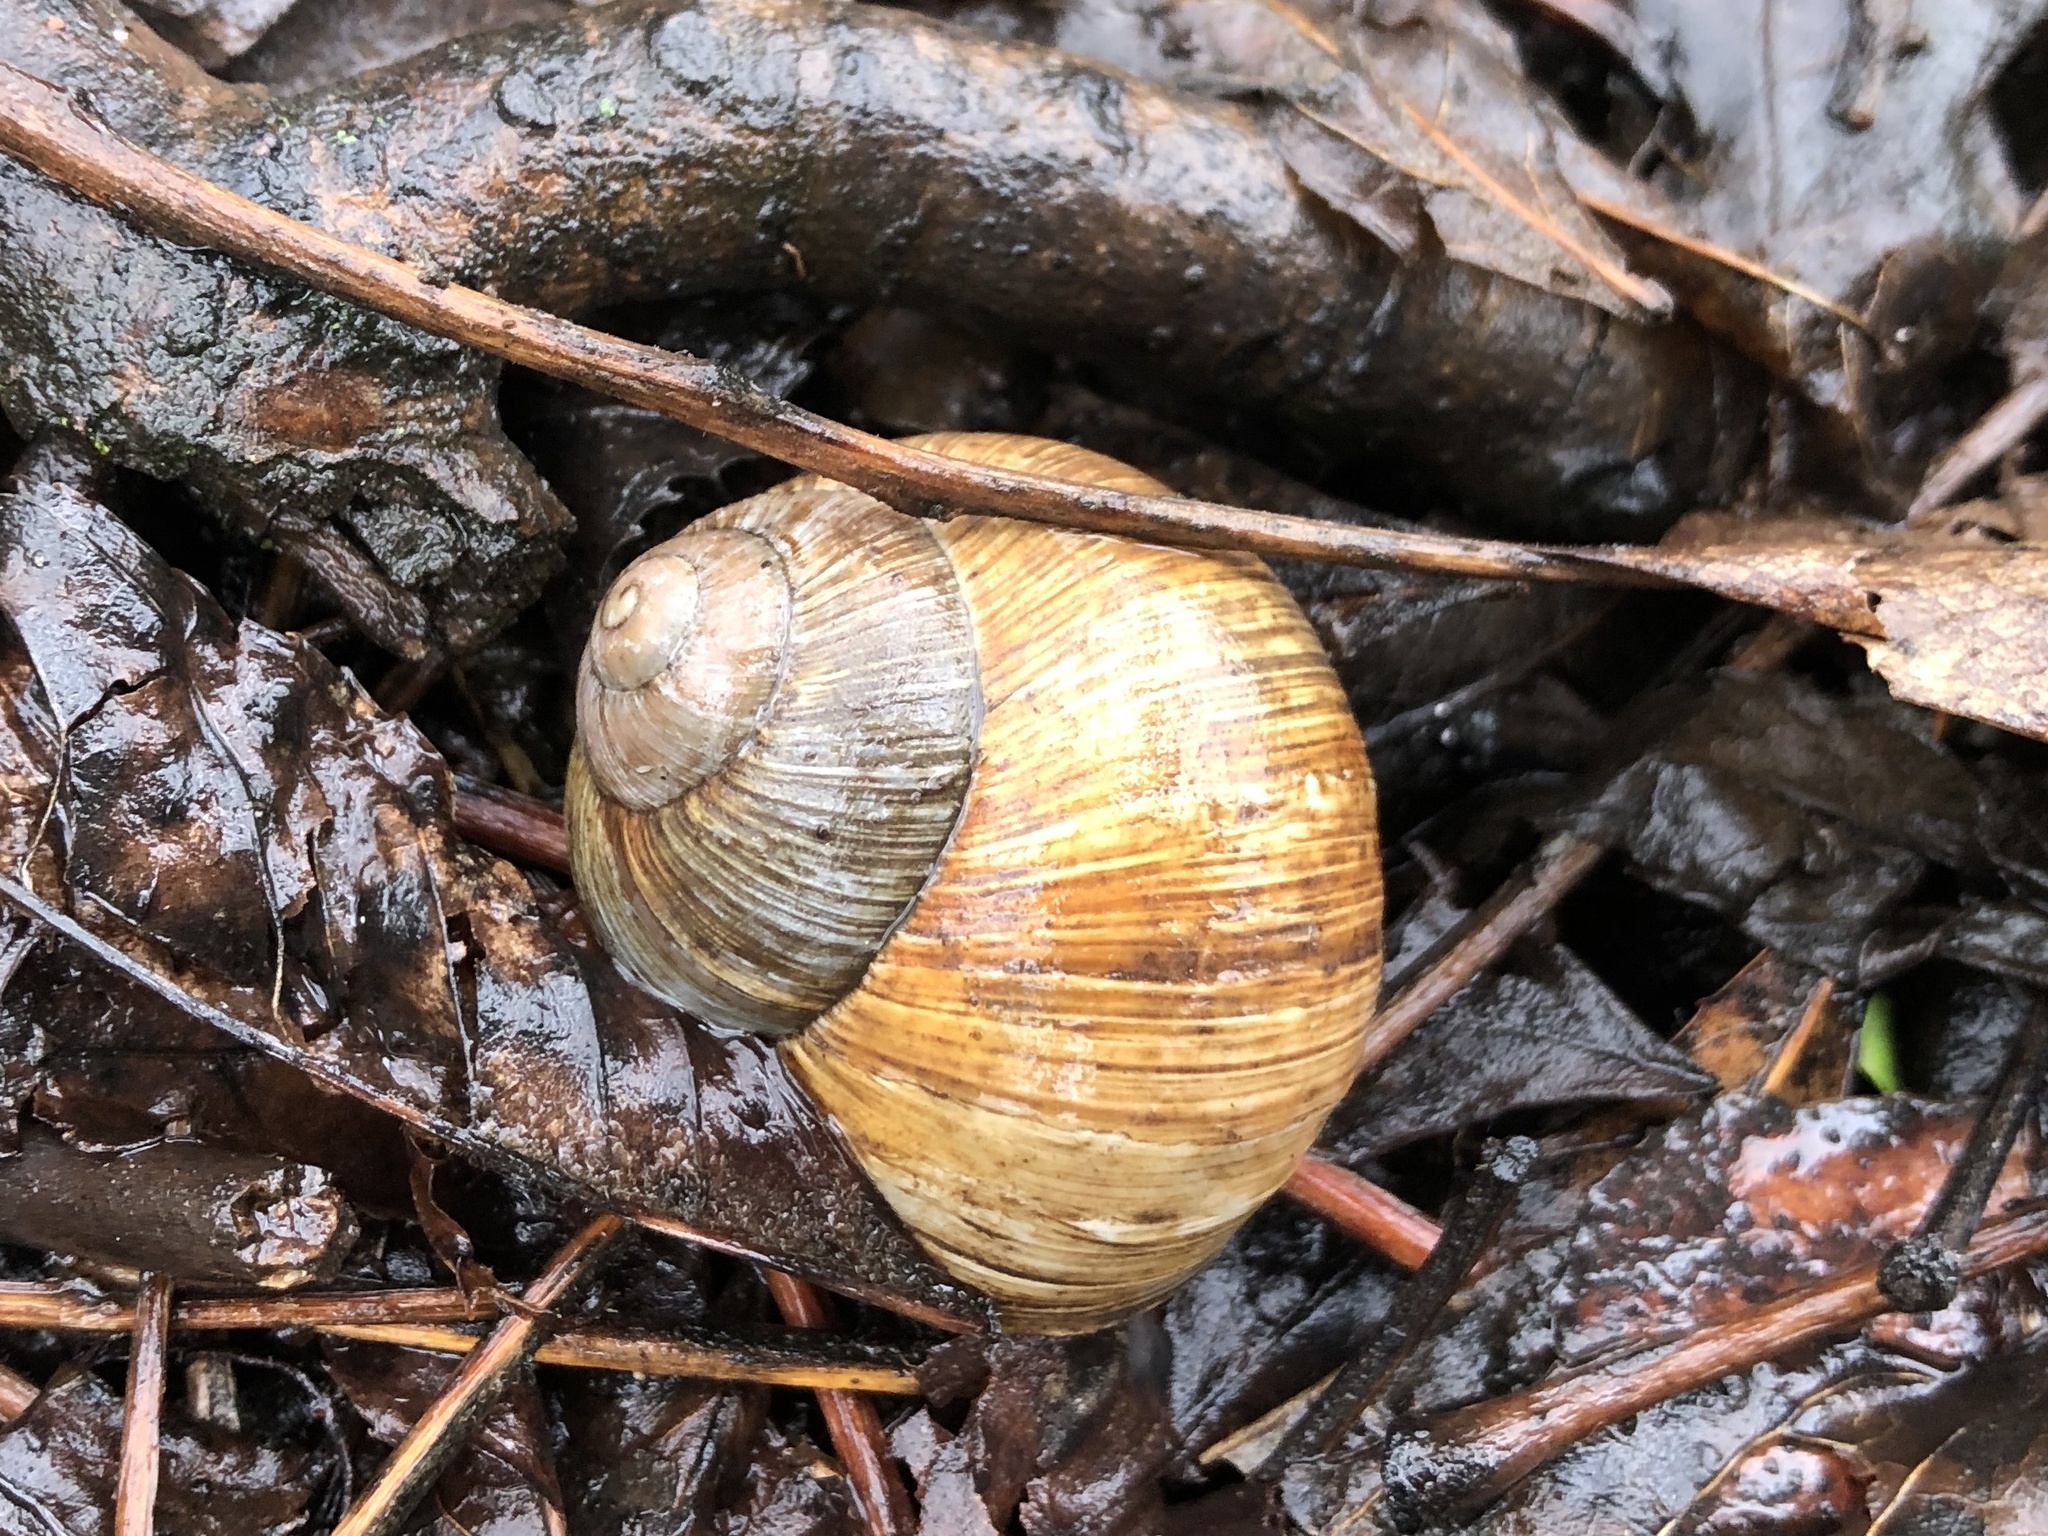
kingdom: Animalia
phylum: Mollusca
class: Gastropoda
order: Stylommatophora
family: Helicidae
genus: Helix
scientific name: Helix pomatia
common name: Roman snail
